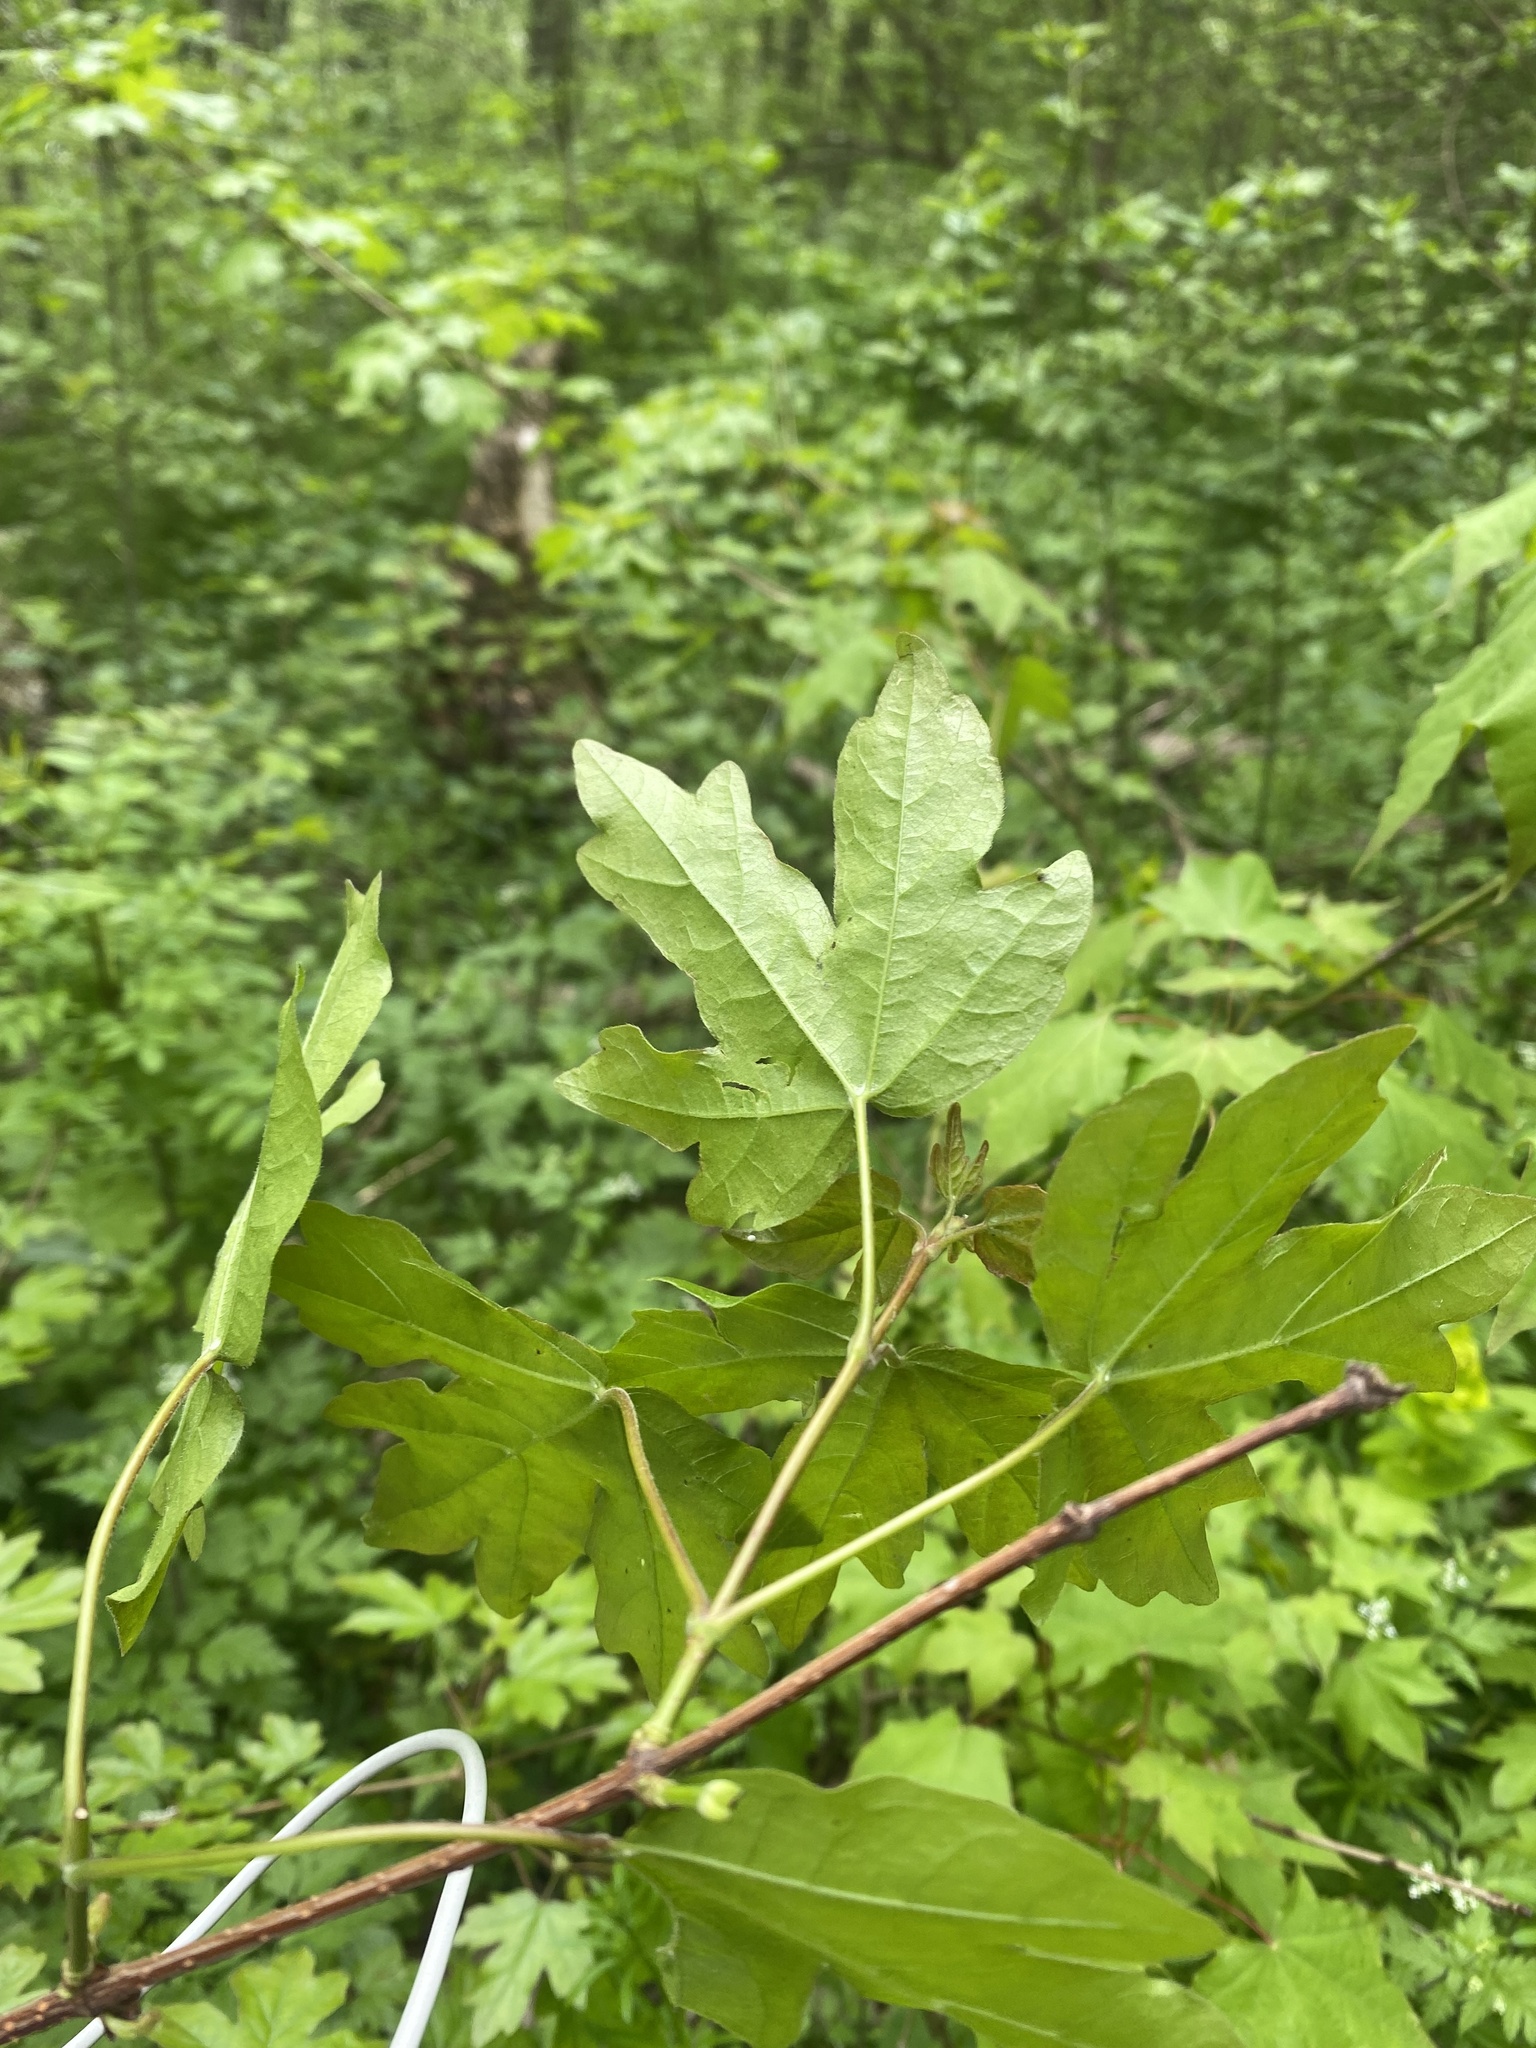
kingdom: Plantae
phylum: Tracheophyta
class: Magnoliopsida
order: Sapindales
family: Sapindaceae
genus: Acer
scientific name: Acer campestre
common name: Field maple
